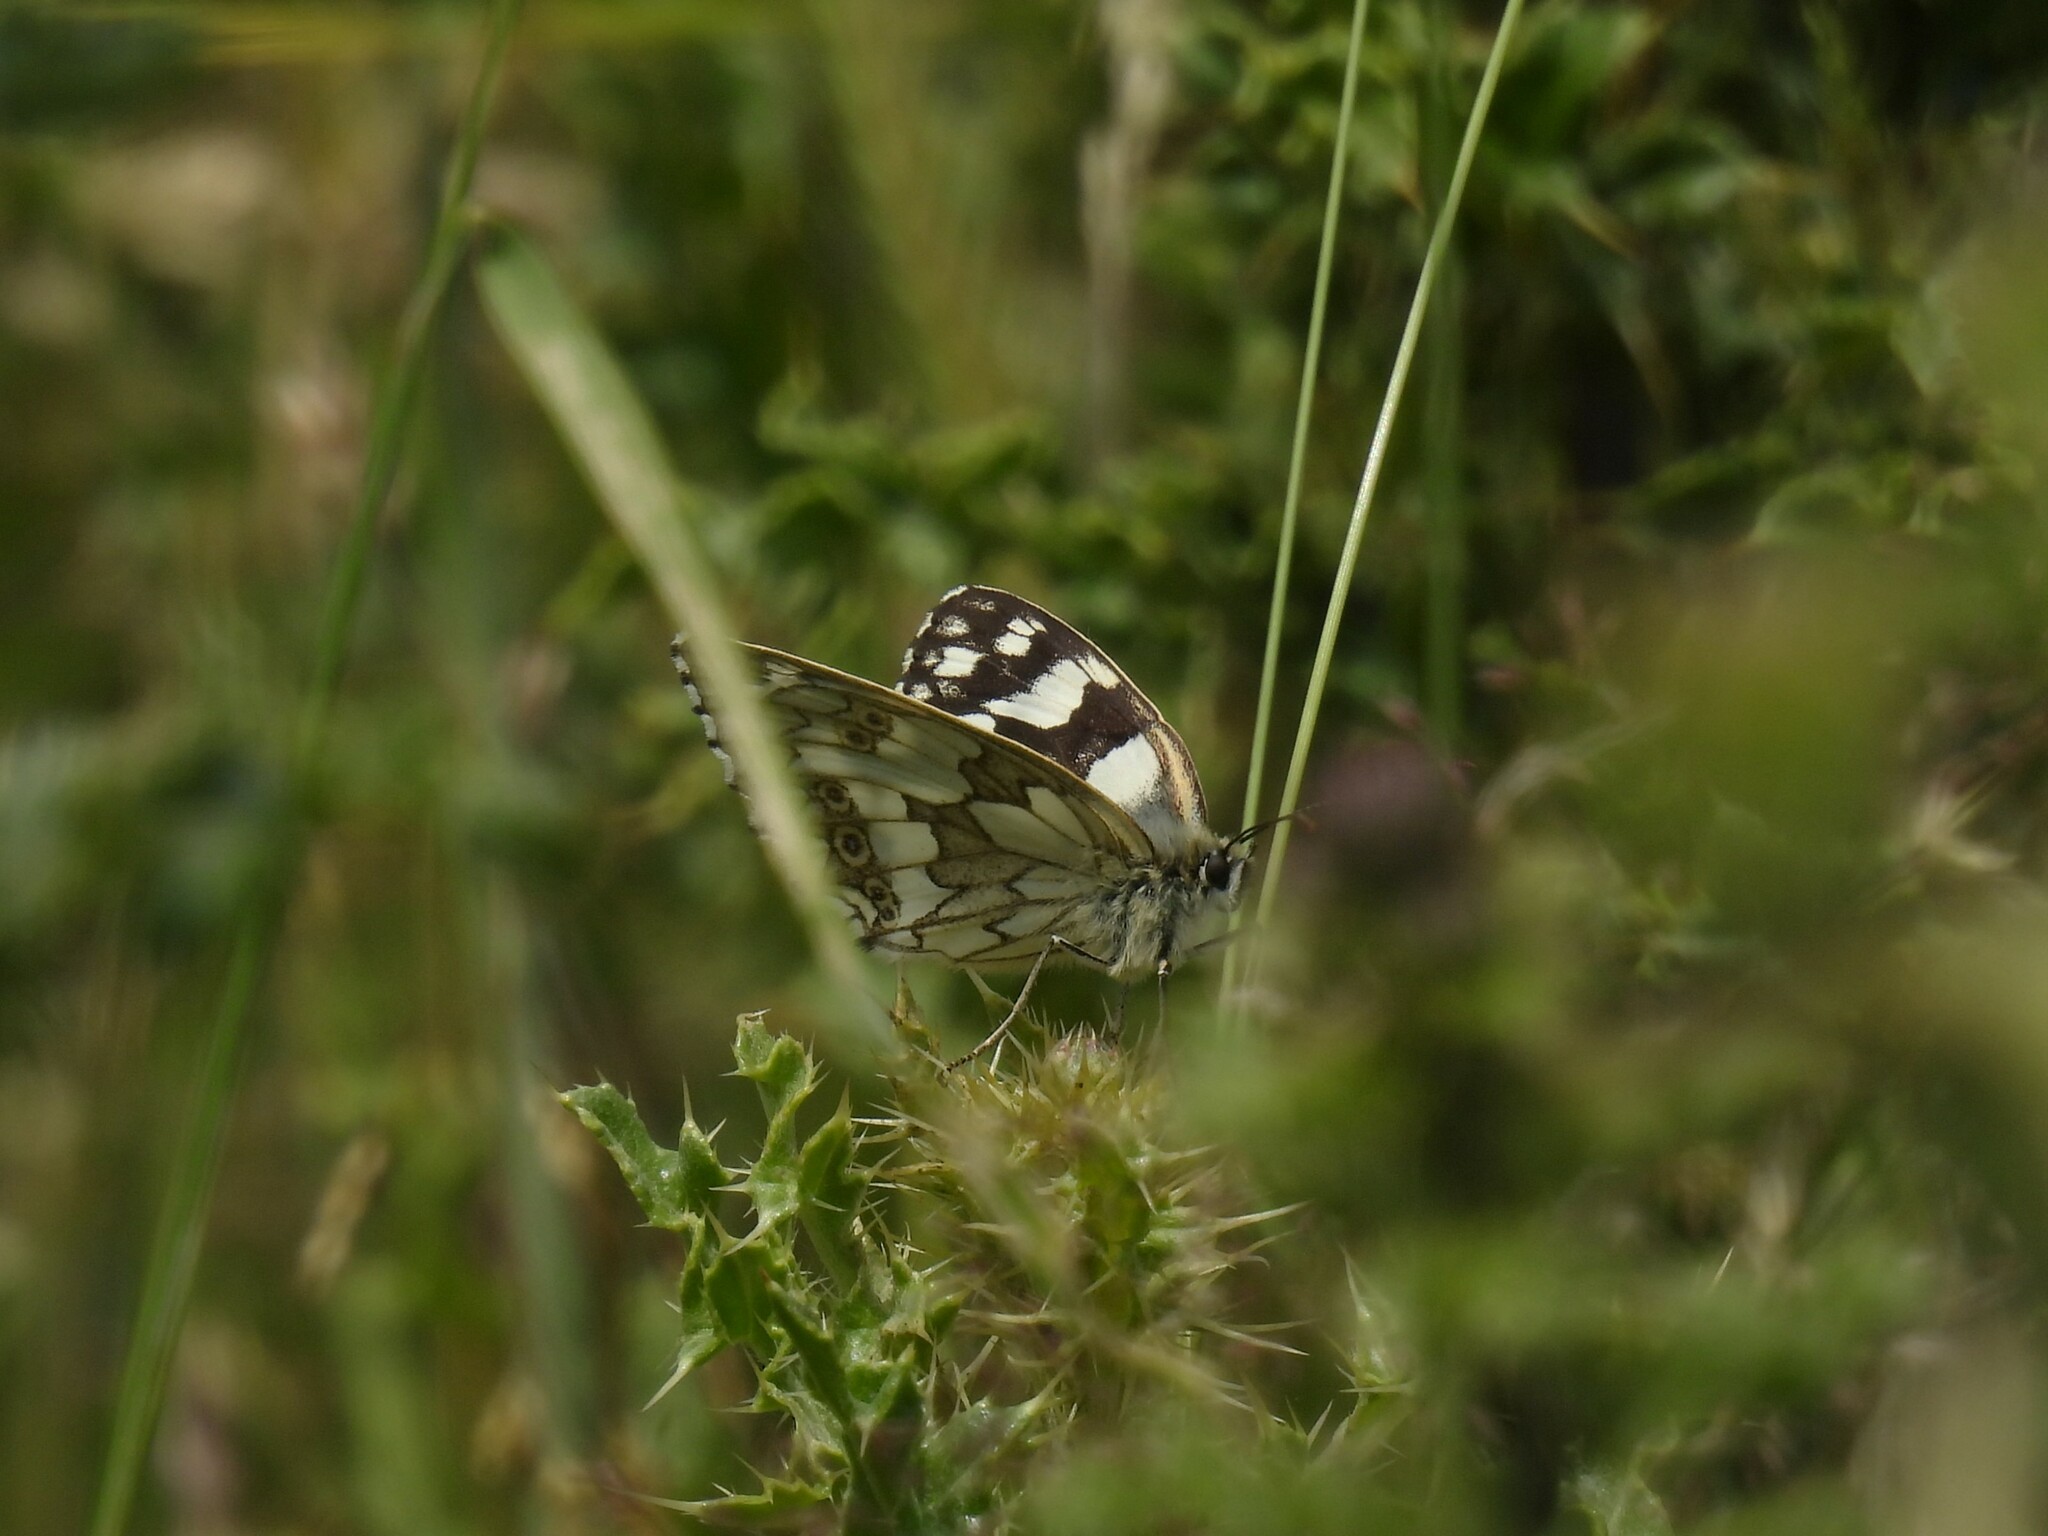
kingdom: Animalia
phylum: Arthropoda
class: Insecta
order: Lepidoptera
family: Nymphalidae
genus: Melanargia
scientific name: Melanargia galathea
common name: Marbled white
